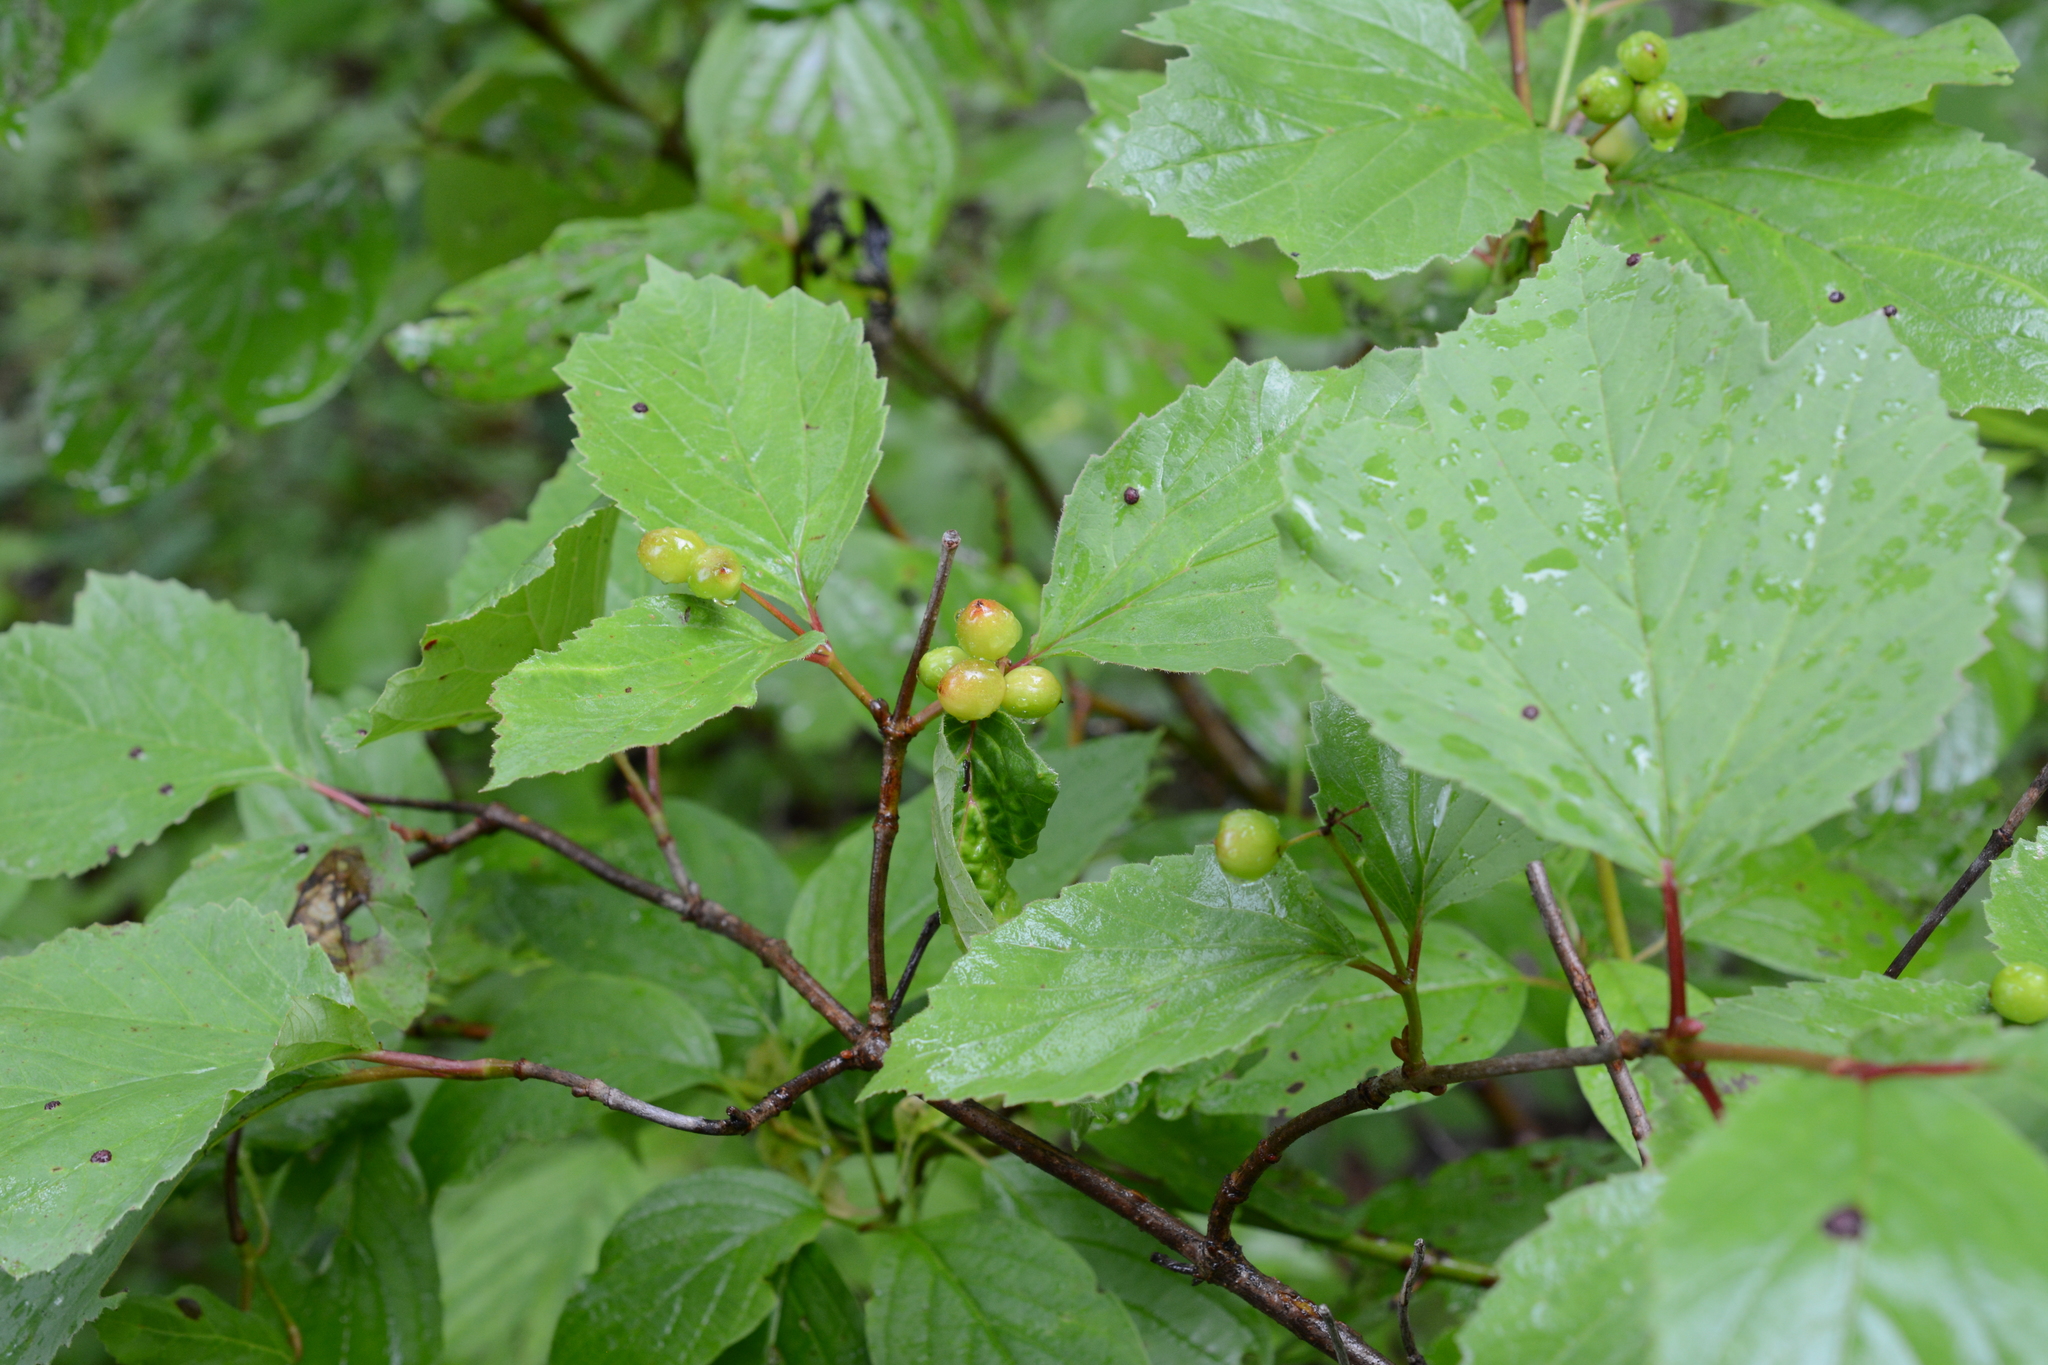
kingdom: Plantae
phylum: Tracheophyta
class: Magnoliopsida
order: Dipsacales
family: Viburnaceae
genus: Viburnum
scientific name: Viburnum edule
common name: Mooseberry
